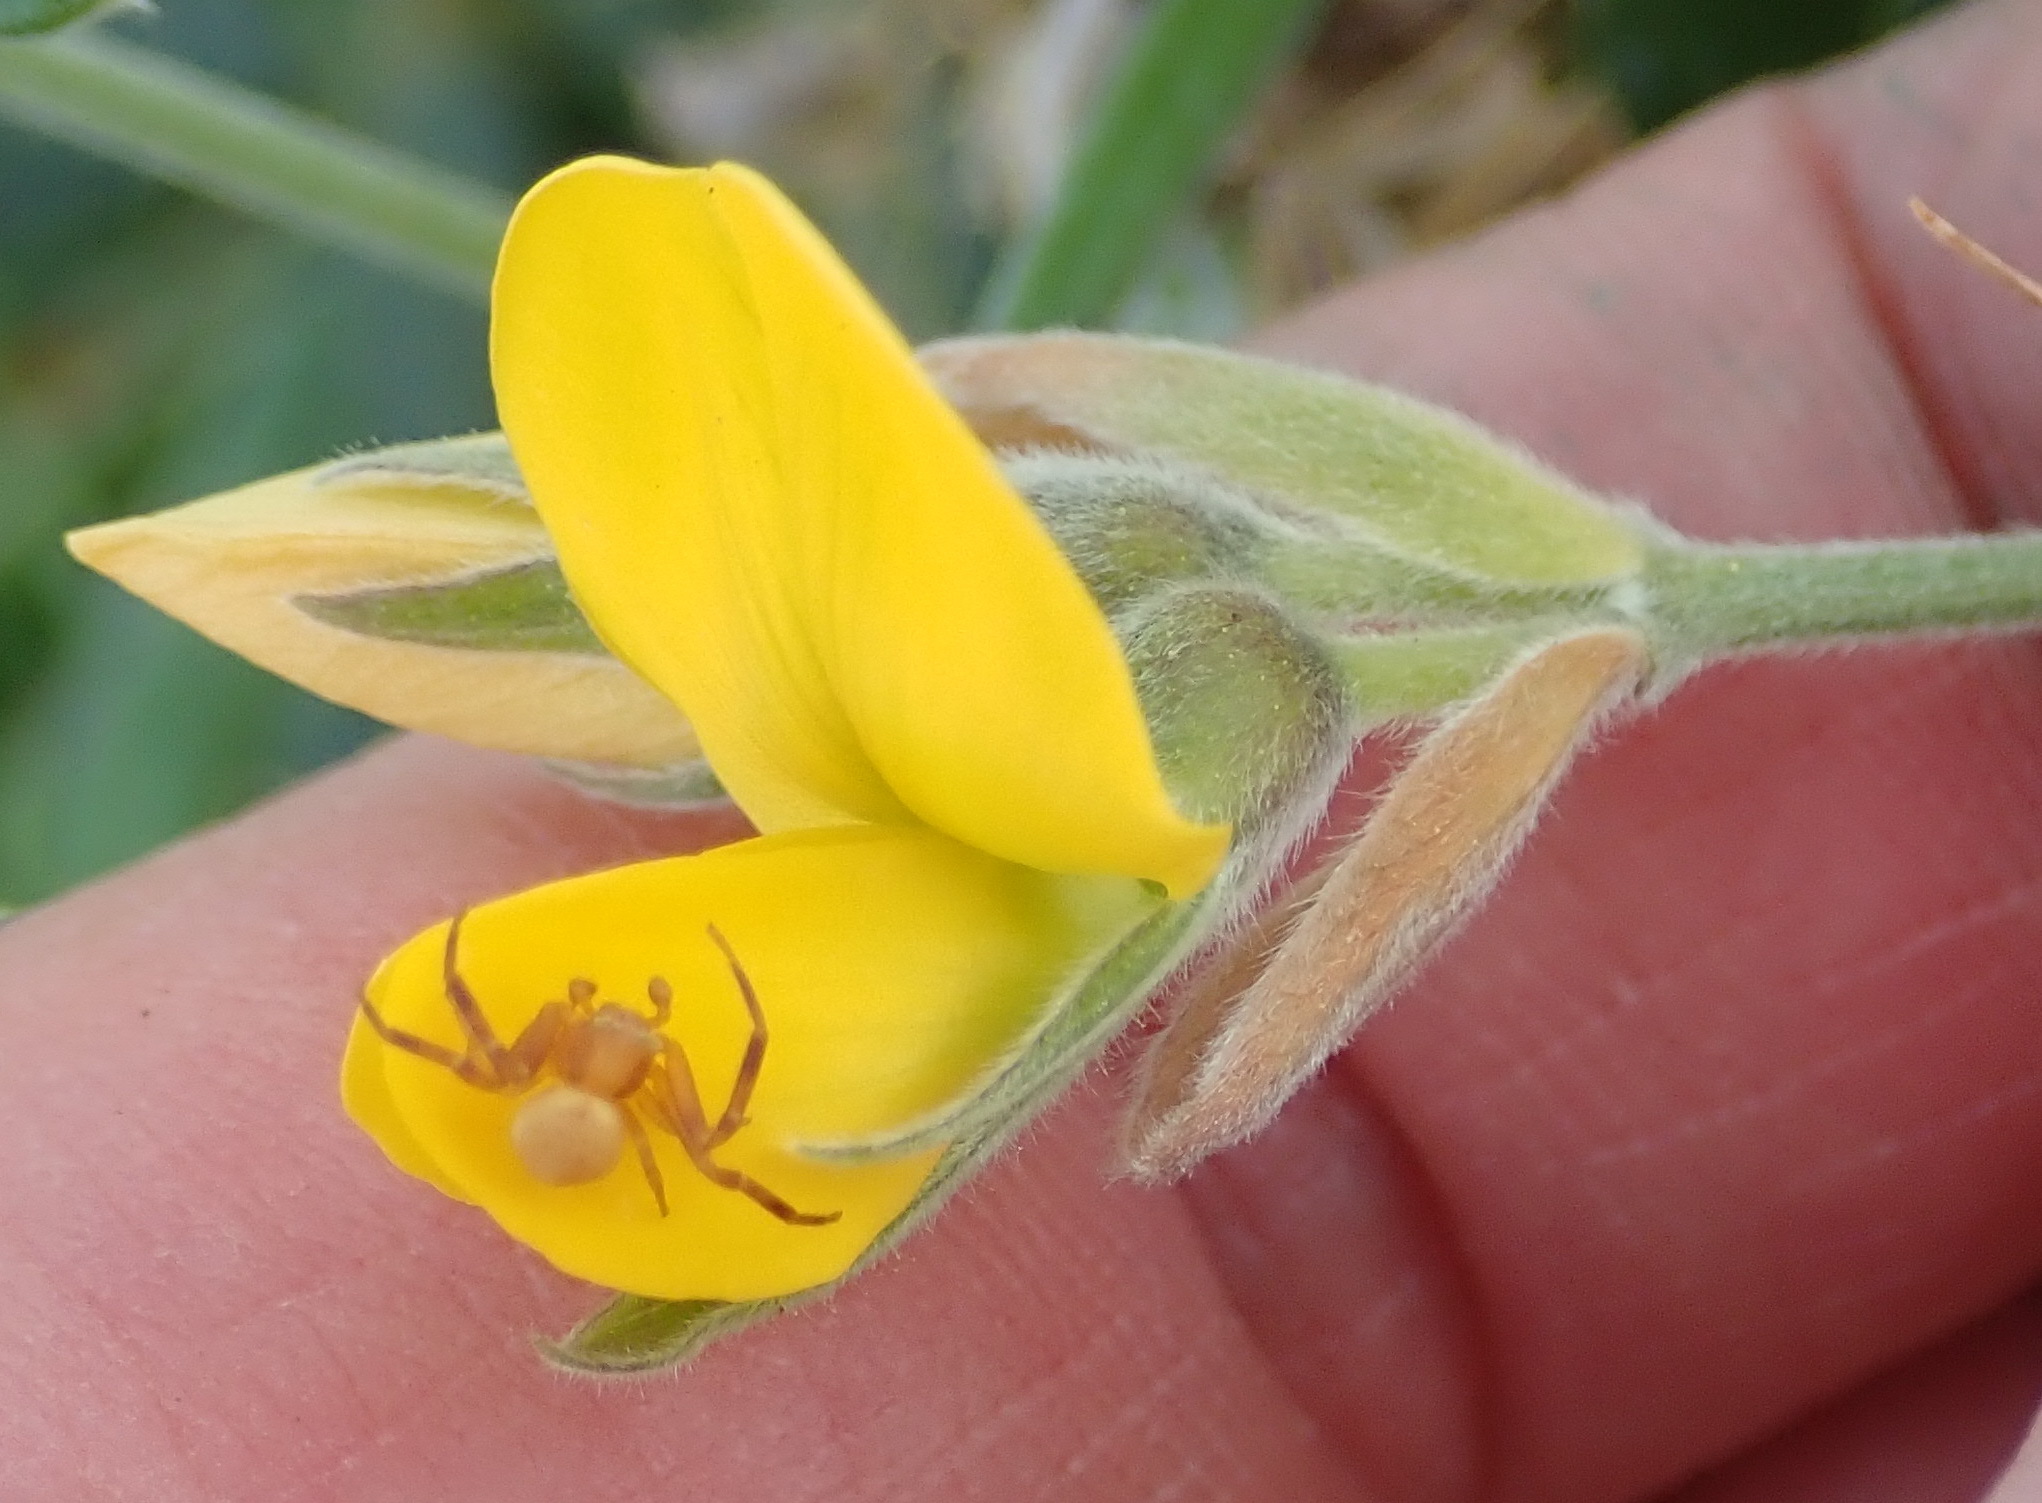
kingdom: Plantae
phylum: Tracheophyta
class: Magnoliopsida
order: Fabales
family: Fabaceae
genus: Rhynchosia
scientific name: Rhynchosia chrysoscias
